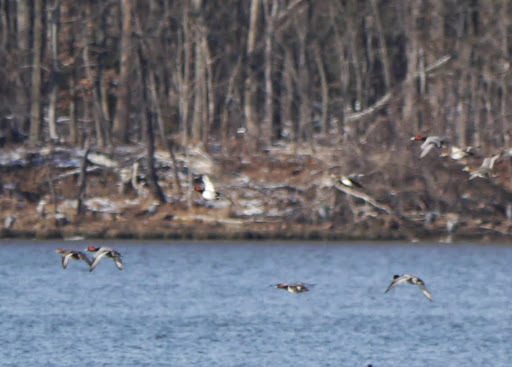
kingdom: Animalia
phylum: Chordata
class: Aves
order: Anseriformes
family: Anatidae
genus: Aythya
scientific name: Aythya americana
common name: Redhead
